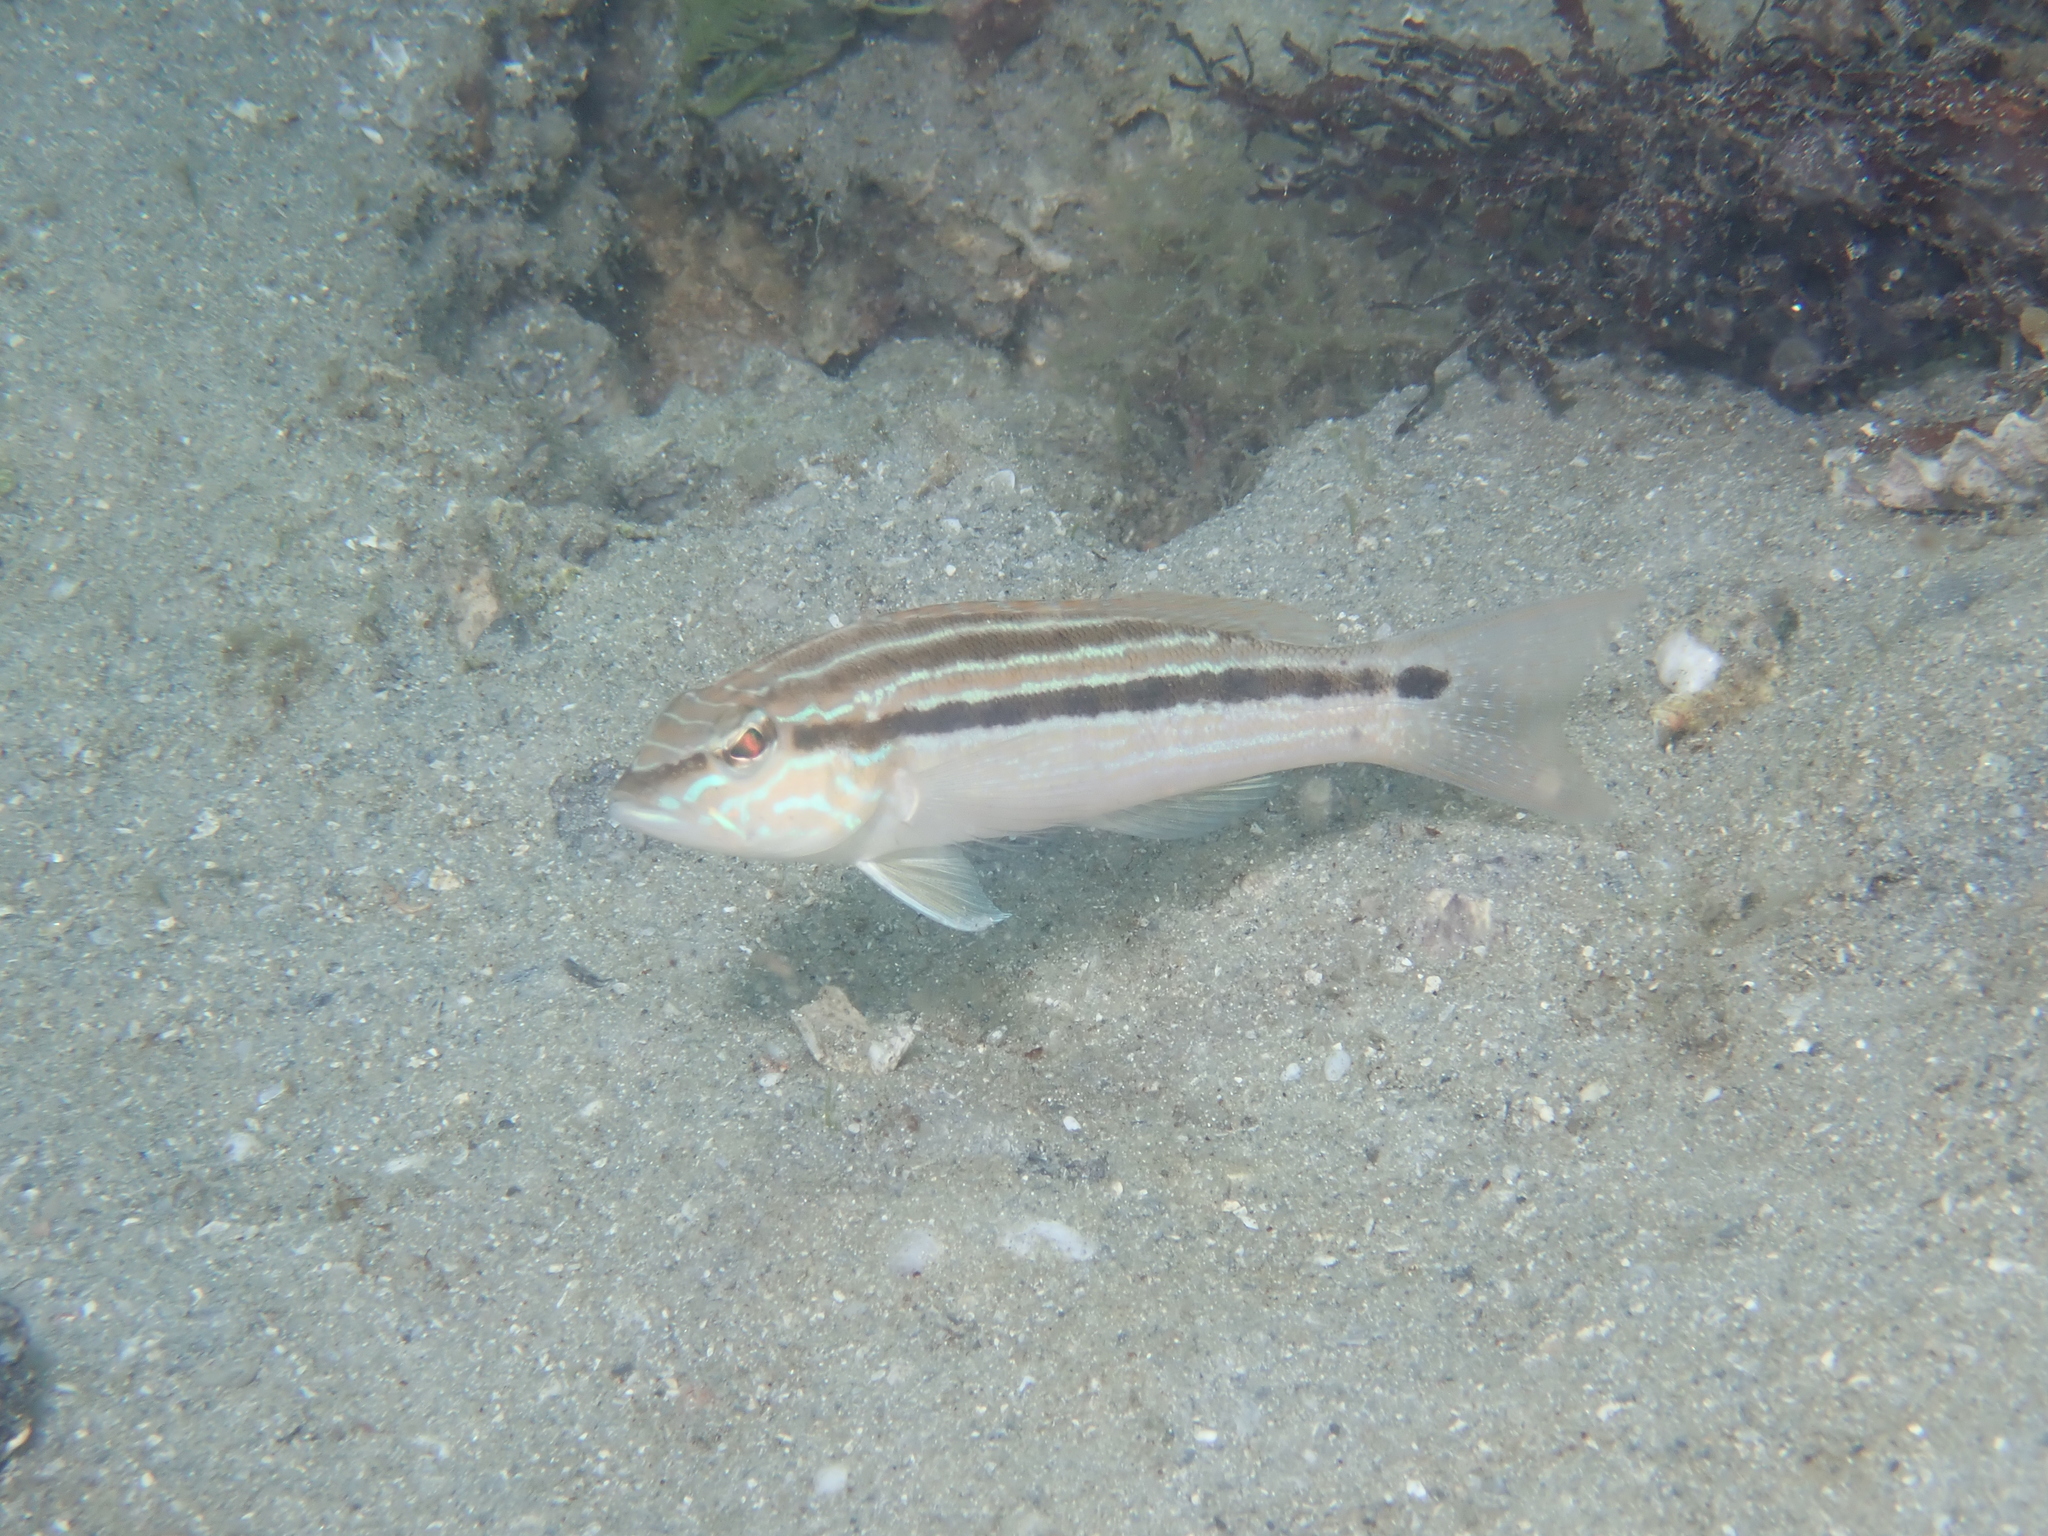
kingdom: Animalia
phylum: Chordata
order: Perciformes
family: Serranidae
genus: Diplectrum
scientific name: Diplectrum formosum
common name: Sand perch
